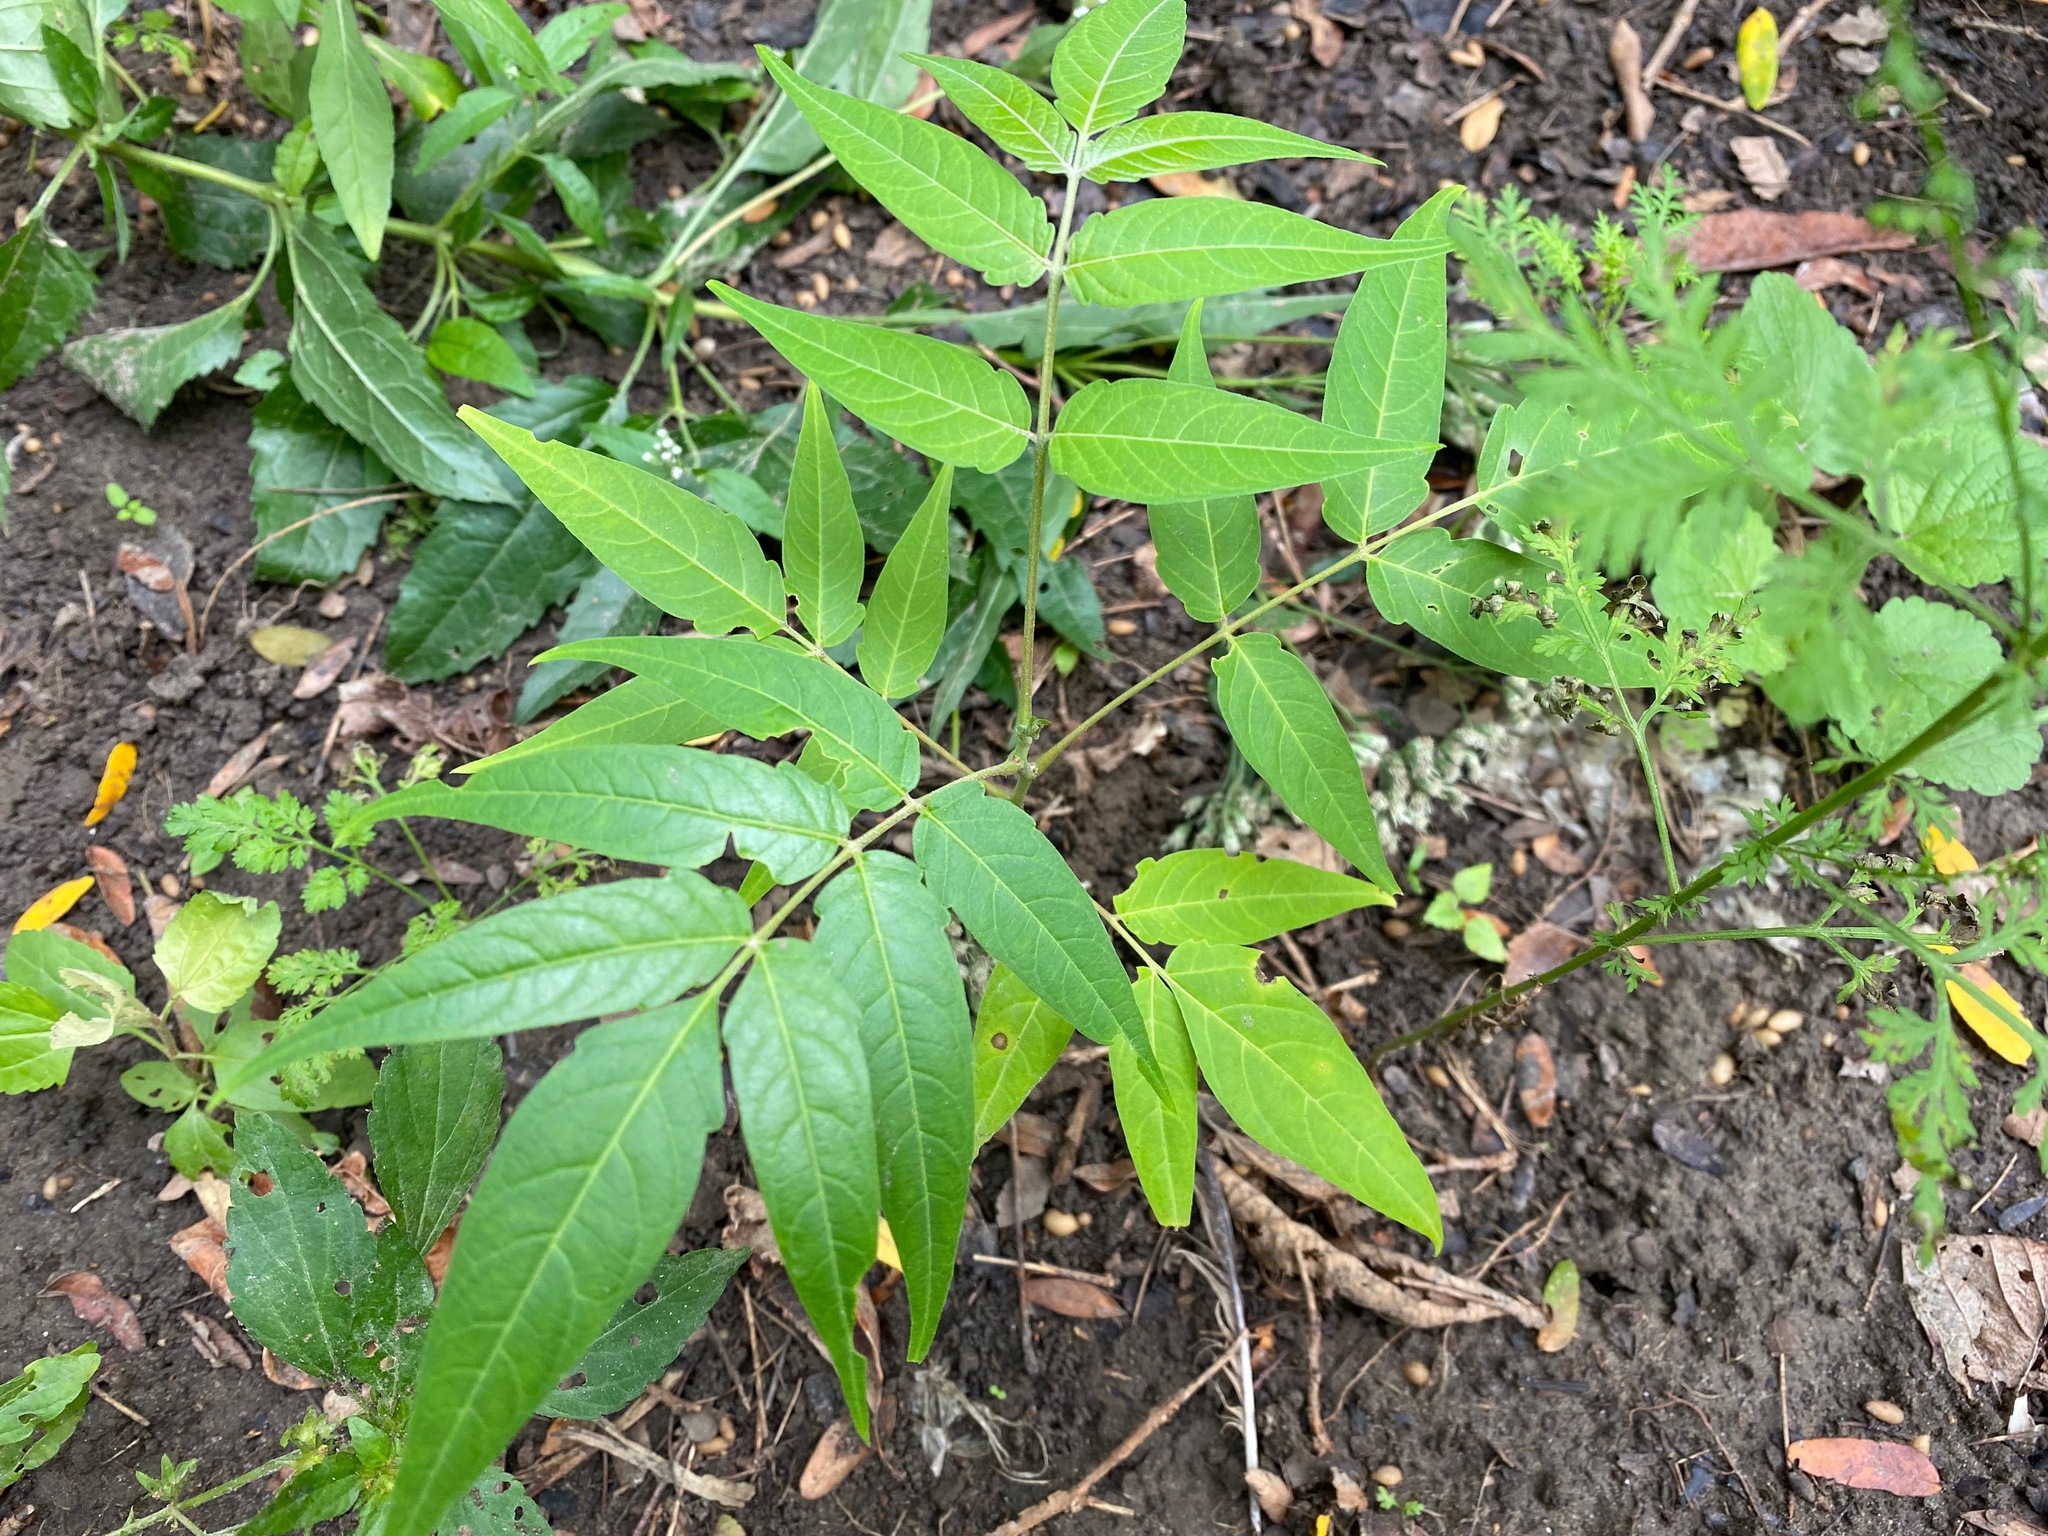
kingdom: Plantae
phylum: Tracheophyta
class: Magnoliopsida
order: Sapindales
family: Simaroubaceae
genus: Ailanthus
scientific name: Ailanthus altissima
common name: Tree-of-heaven
